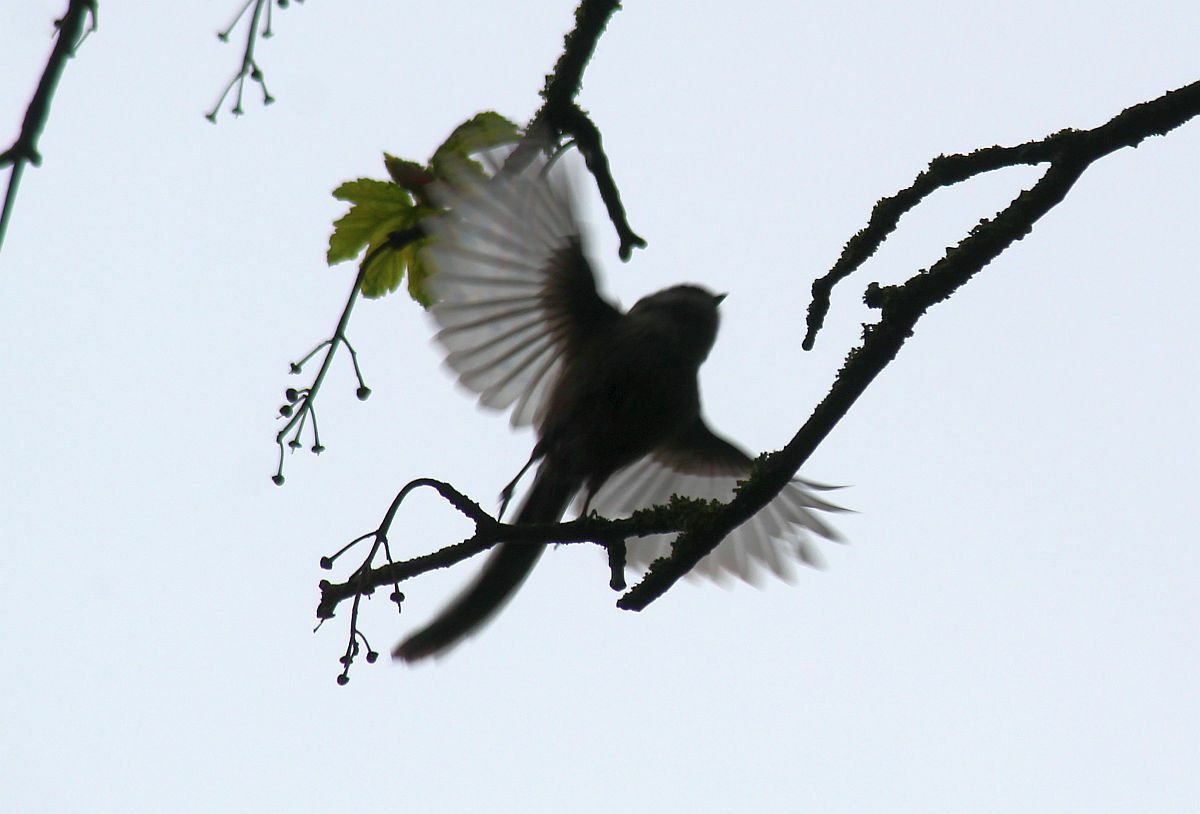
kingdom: Animalia
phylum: Chordata
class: Aves
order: Passeriformes
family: Aegithalidae
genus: Aegithalos
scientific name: Aegithalos caudatus
